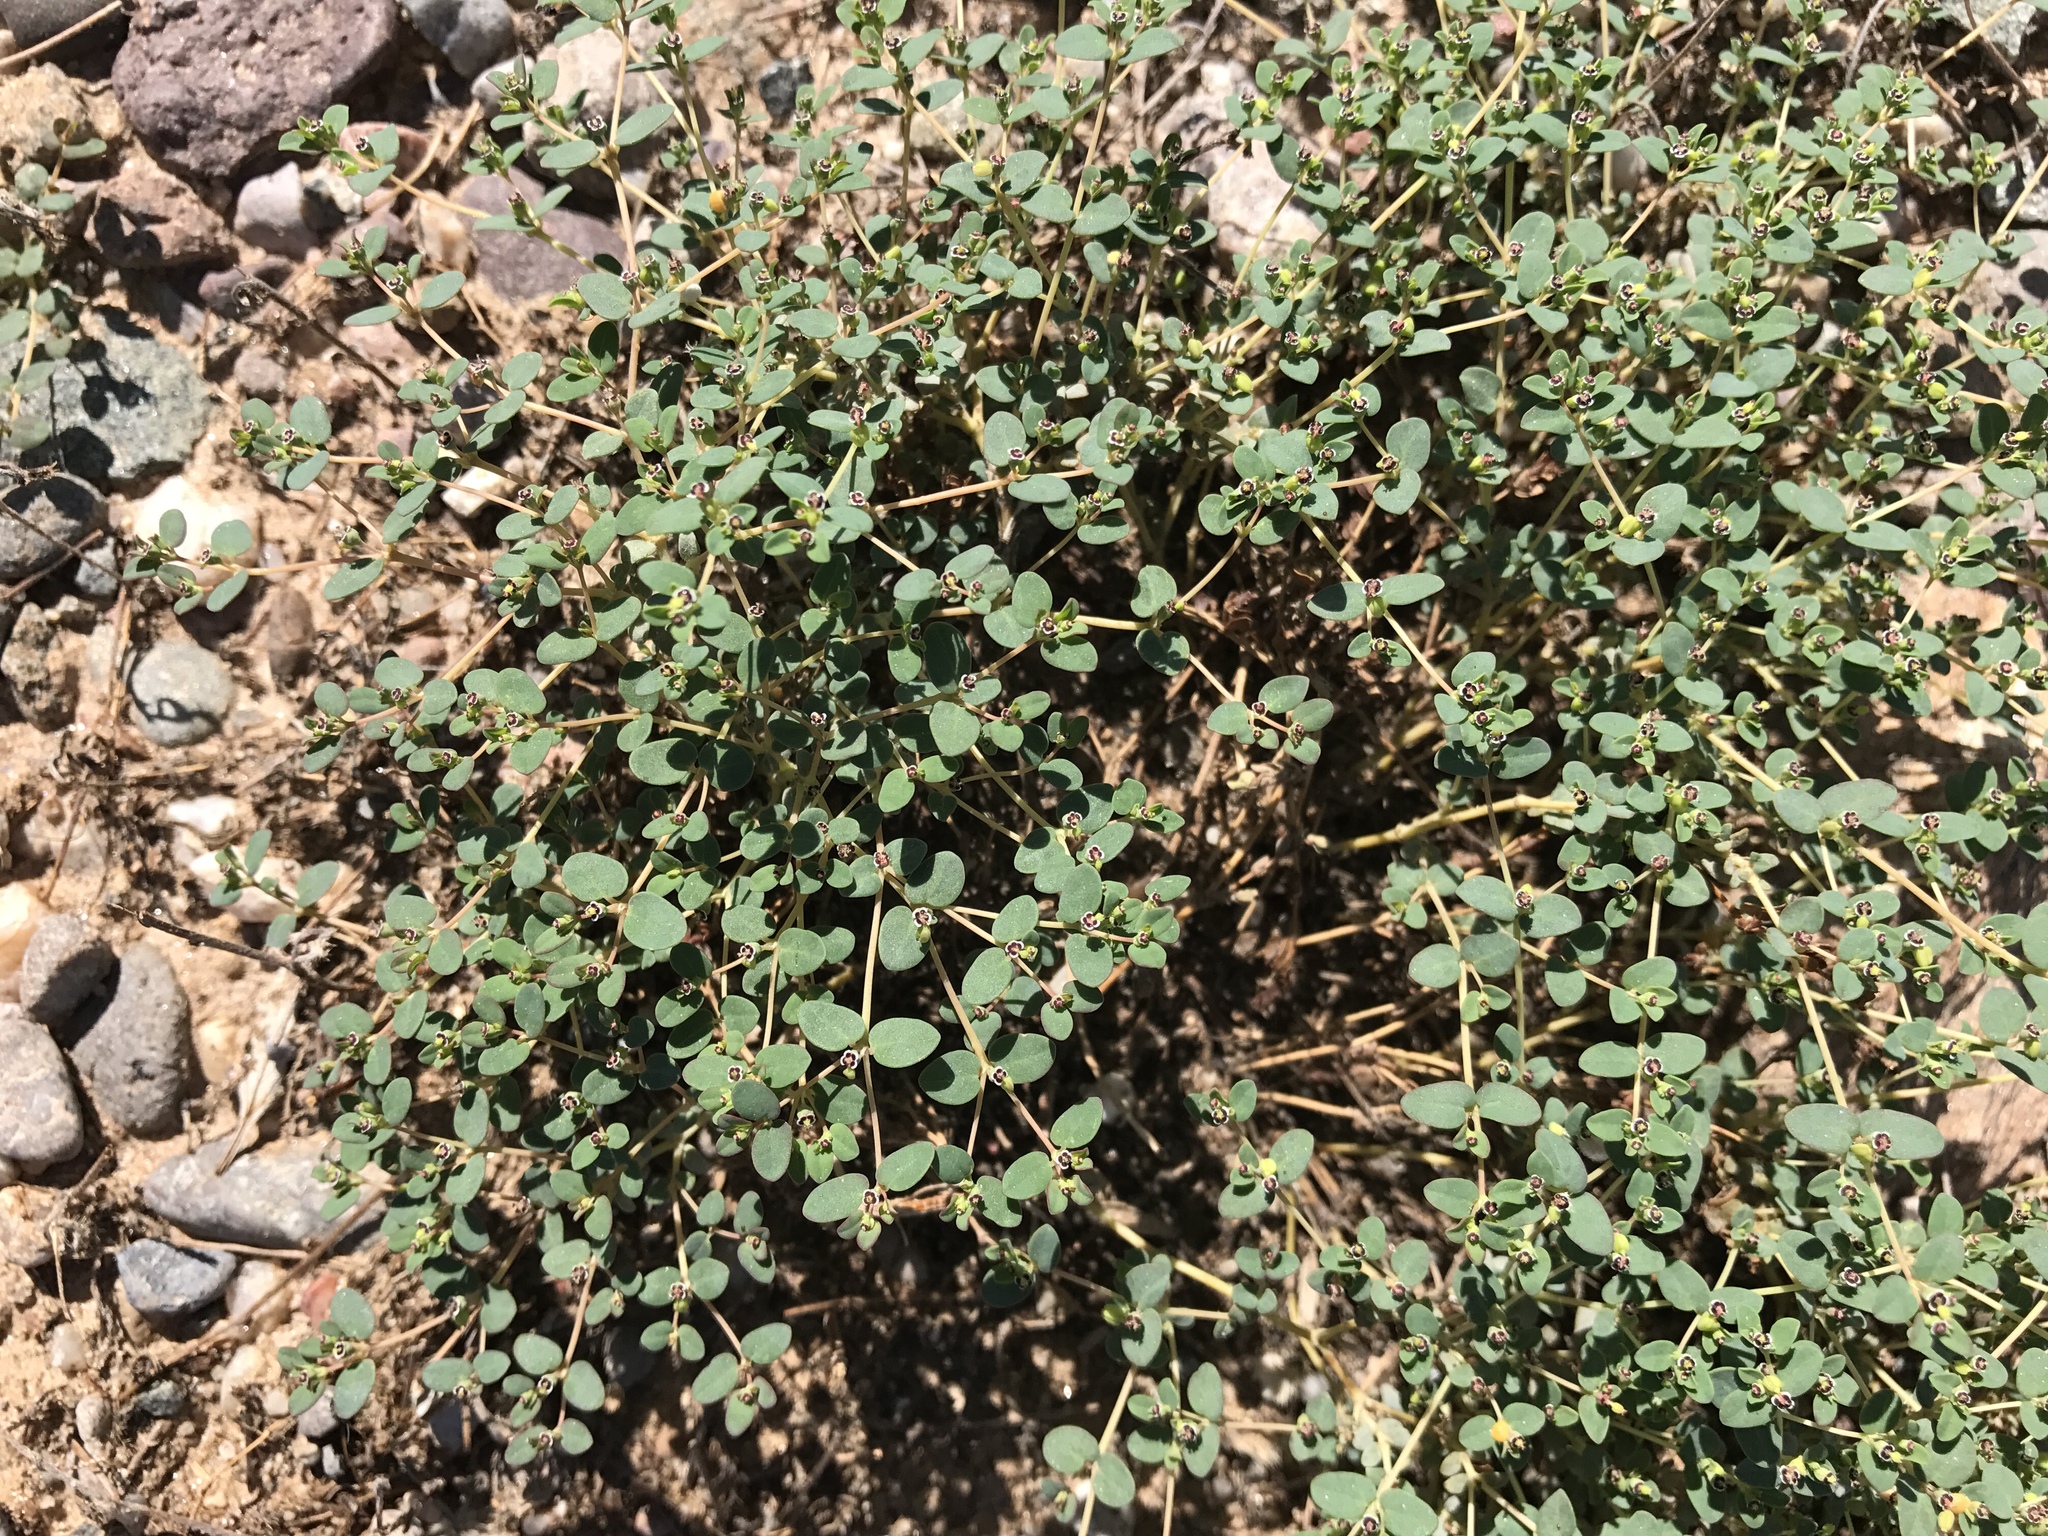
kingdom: Plantae
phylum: Tracheophyta
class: Magnoliopsida
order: Malpighiales
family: Euphorbiaceae
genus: Euphorbia
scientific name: Euphorbia polycarpa
